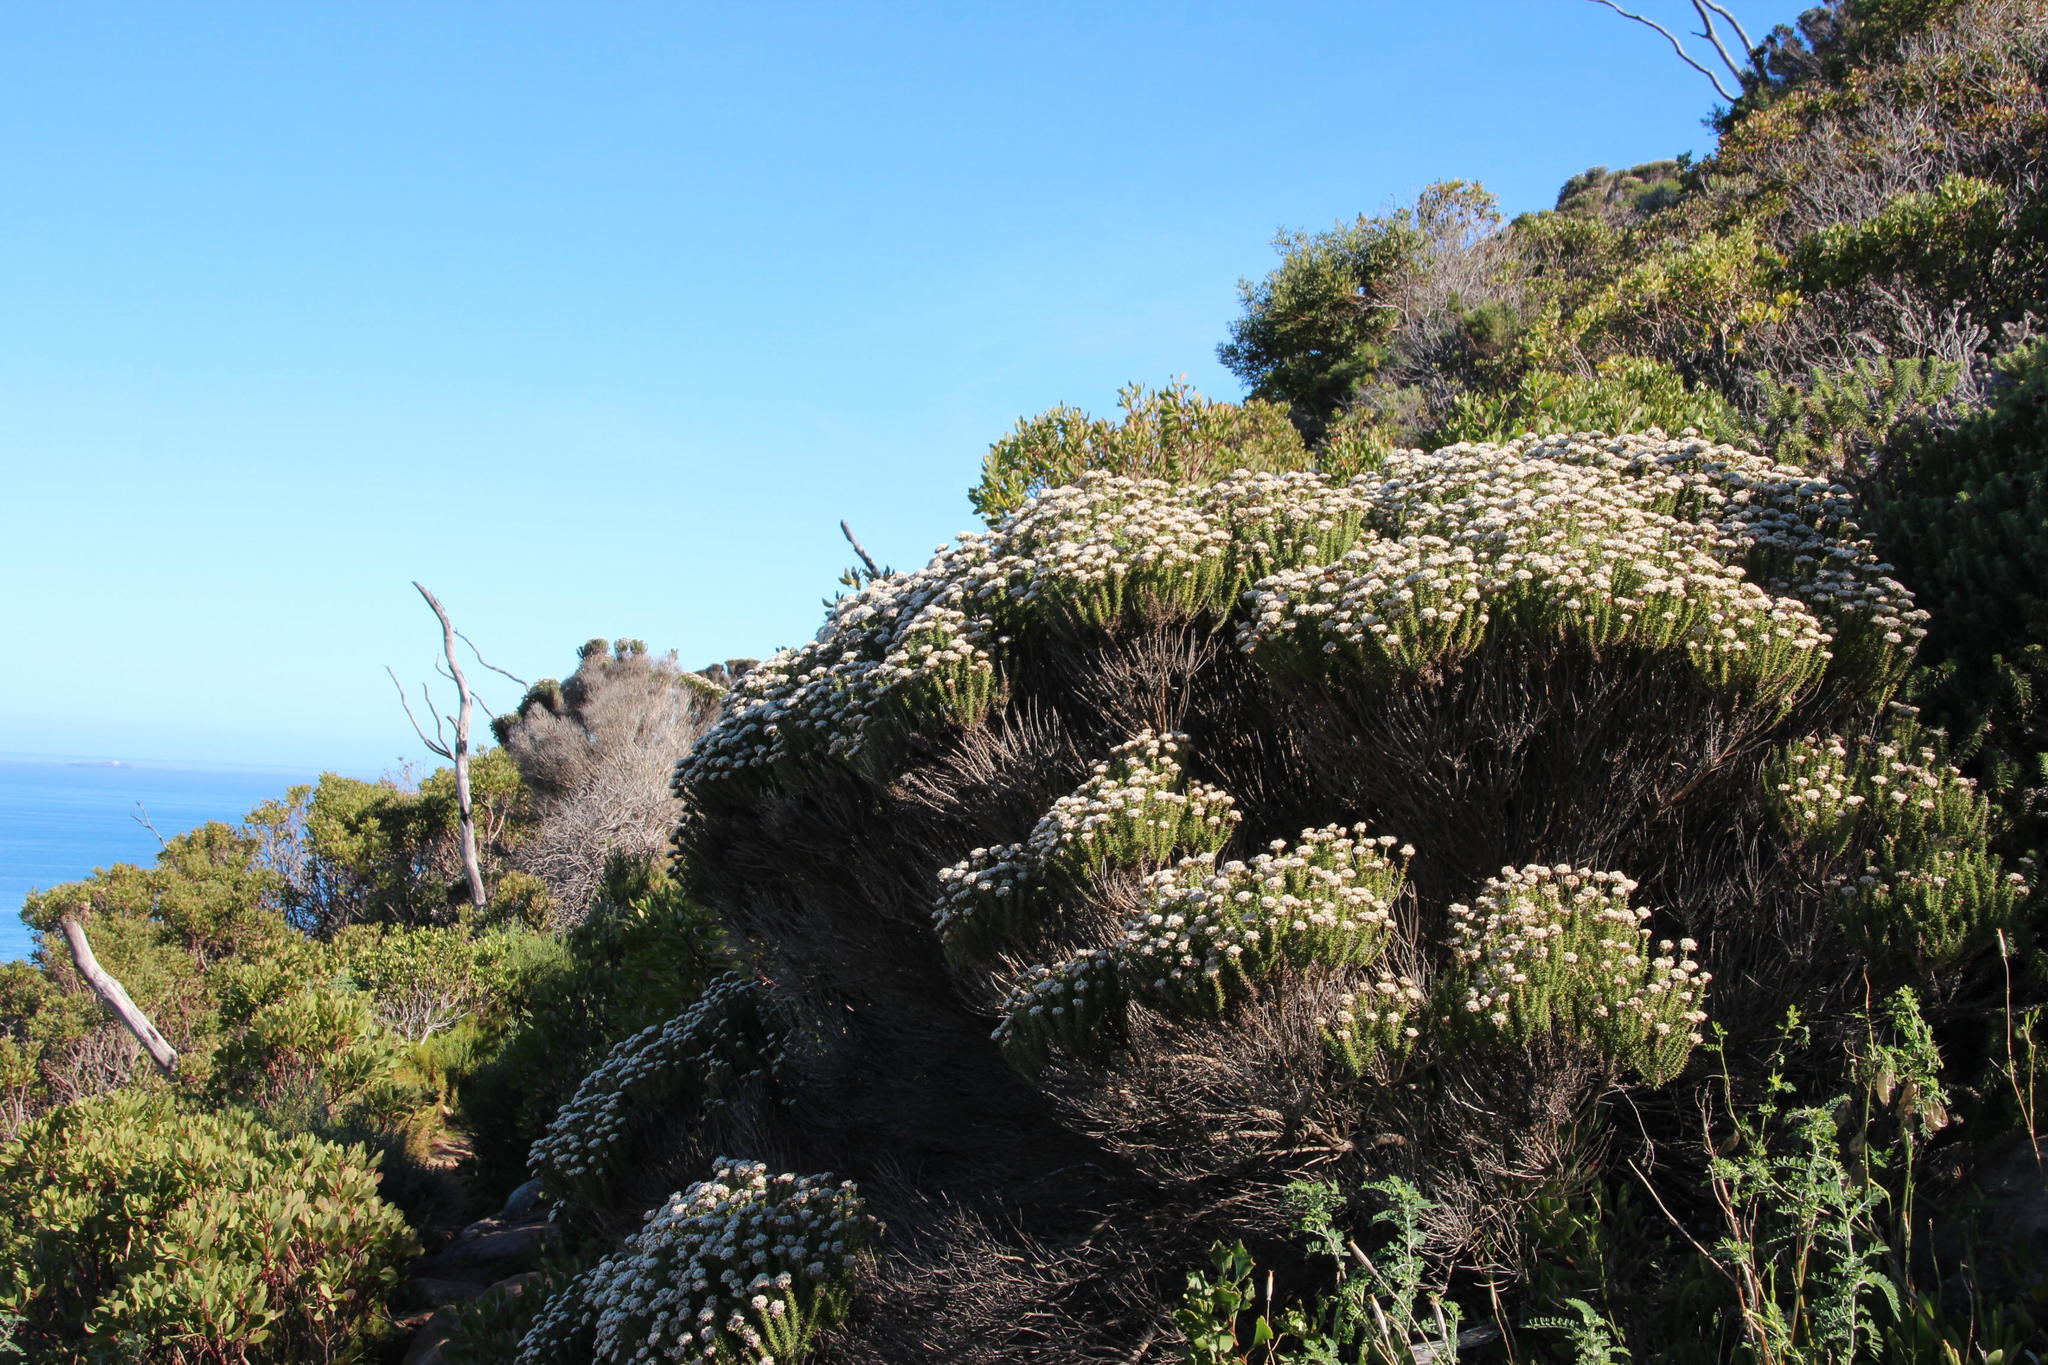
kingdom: Plantae
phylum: Tracheophyta
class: Magnoliopsida
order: Asterales
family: Asteraceae
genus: Metalasia
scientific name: Metalasia muricata
